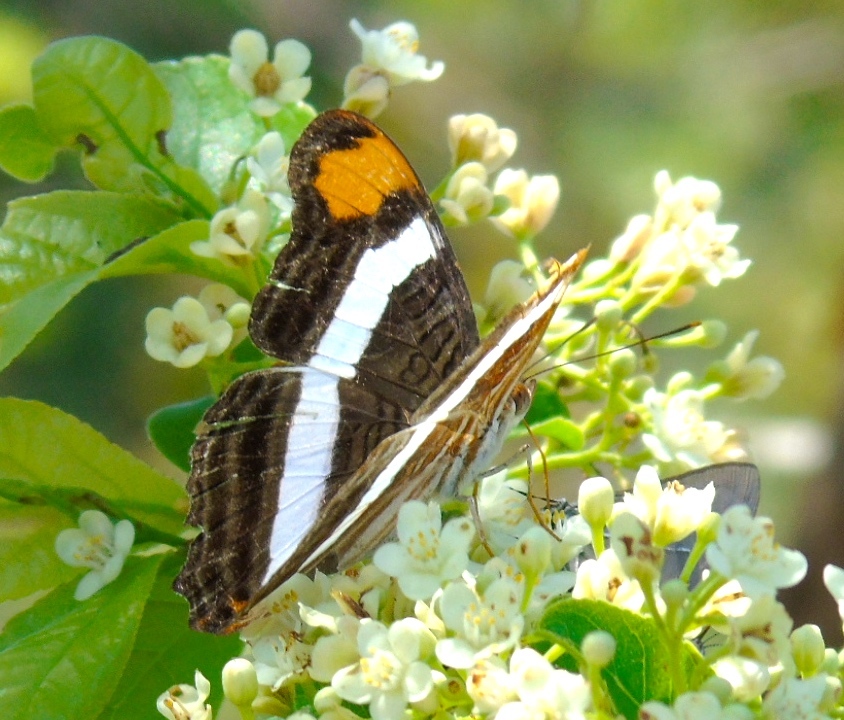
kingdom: Animalia
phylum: Arthropoda
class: Insecta
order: Lepidoptera
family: Nymphalidae
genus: Limenitis
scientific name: Limenitis fessonia
